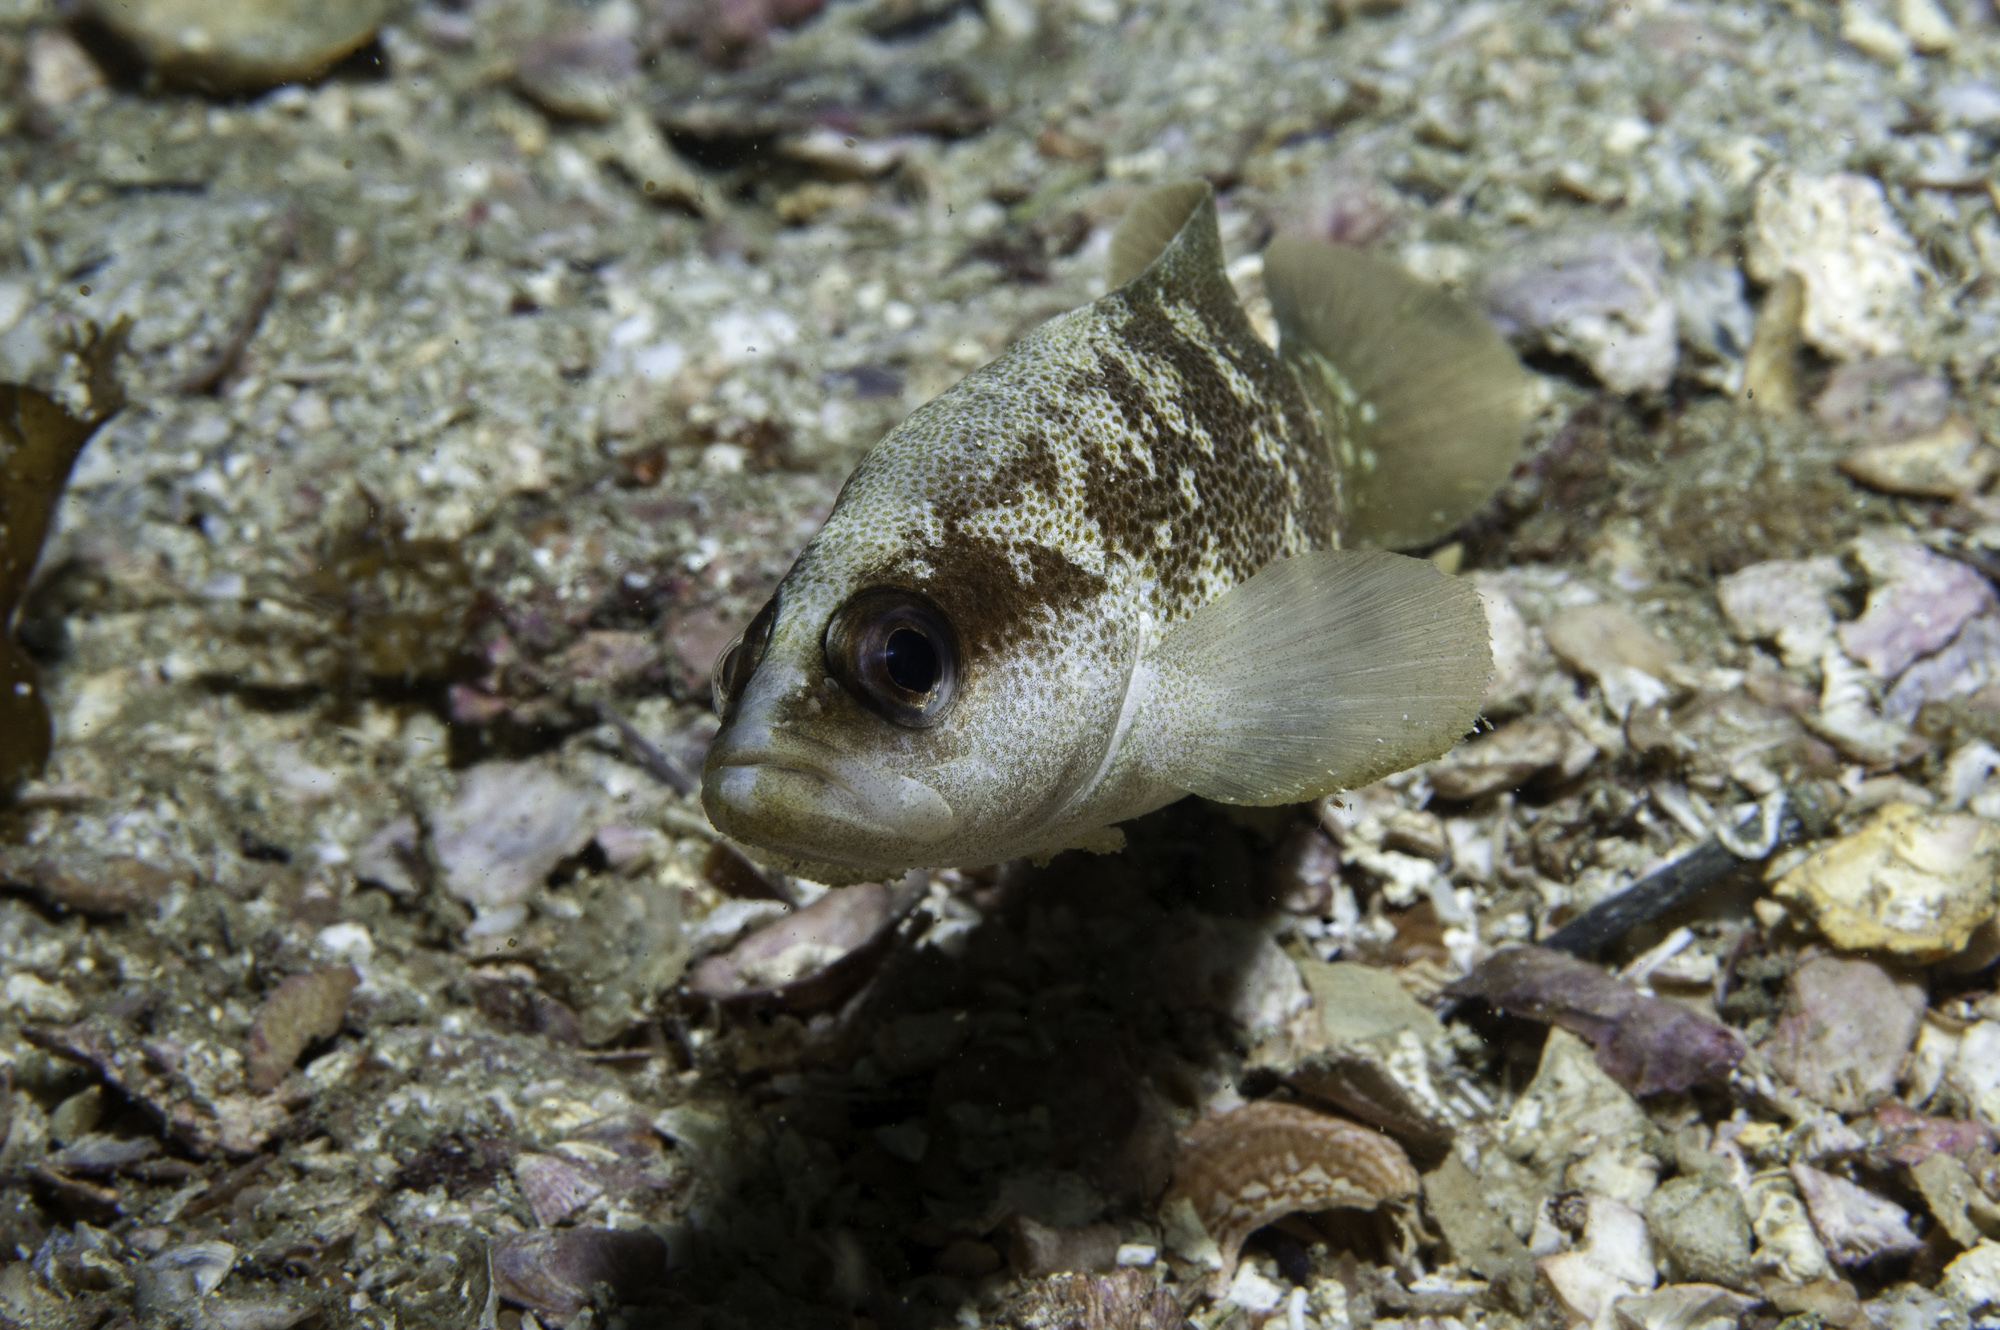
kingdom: Animalia
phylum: Chordata
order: Perciformes
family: Serranidae
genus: Rypticus
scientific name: Rypticus bistrispinus
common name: Freckled soapfish
